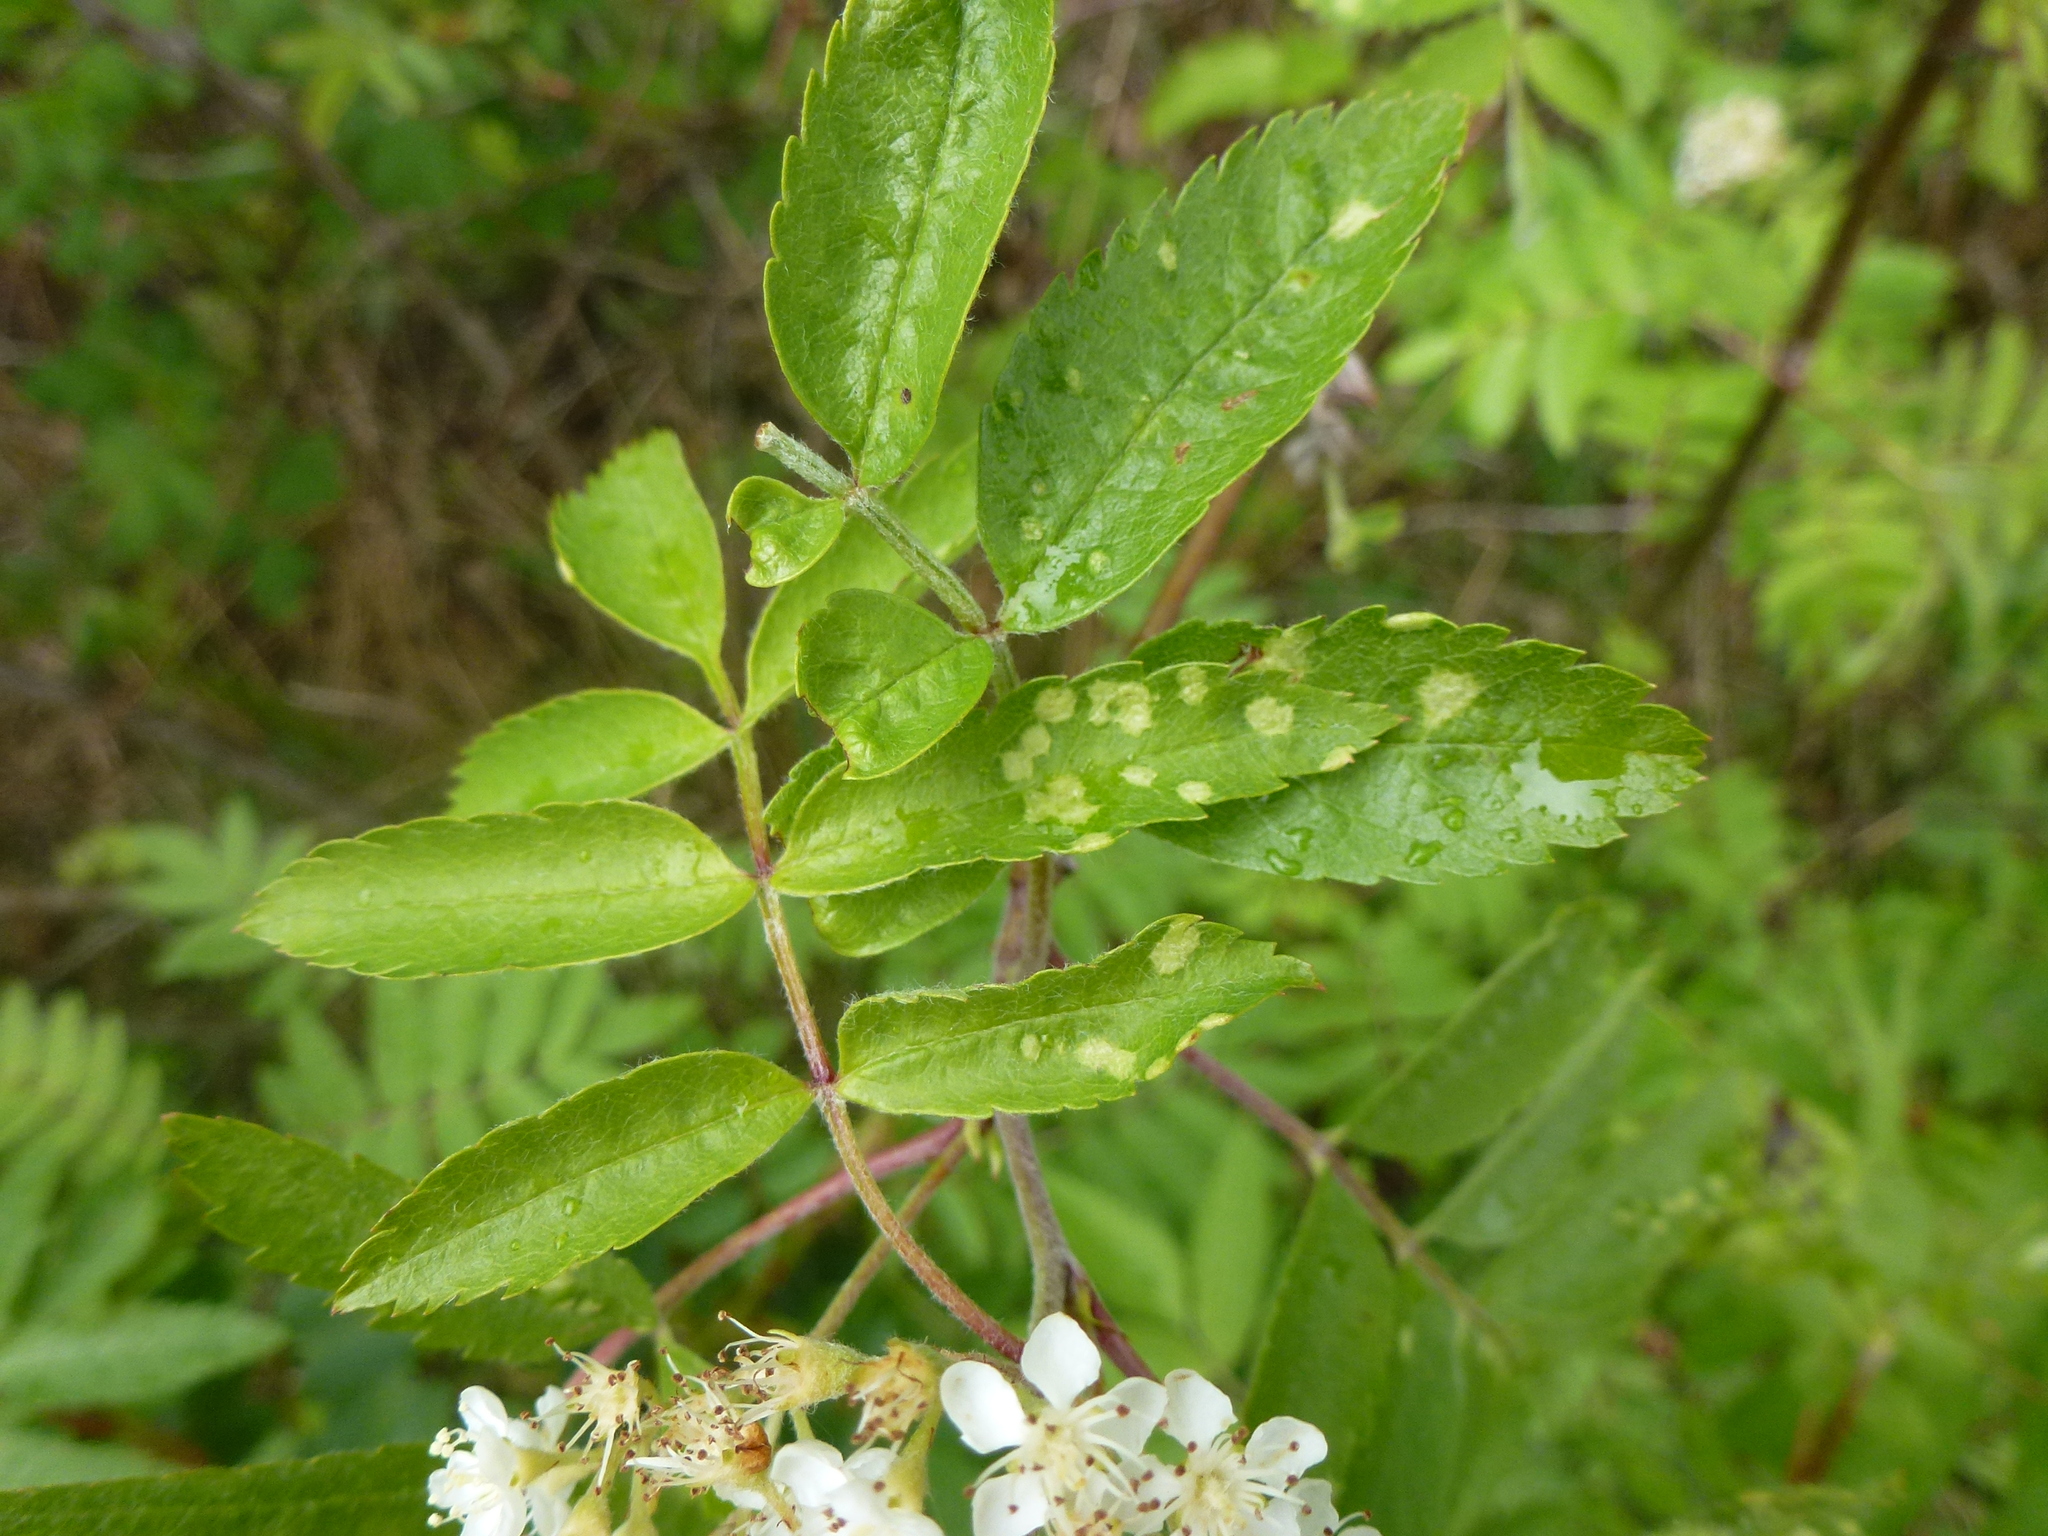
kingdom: Animalia
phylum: Arthropoda
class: Arachnida
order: Trombidiformes
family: Eriophyidae
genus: Eriophyes
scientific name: Eriophyes sorbi
